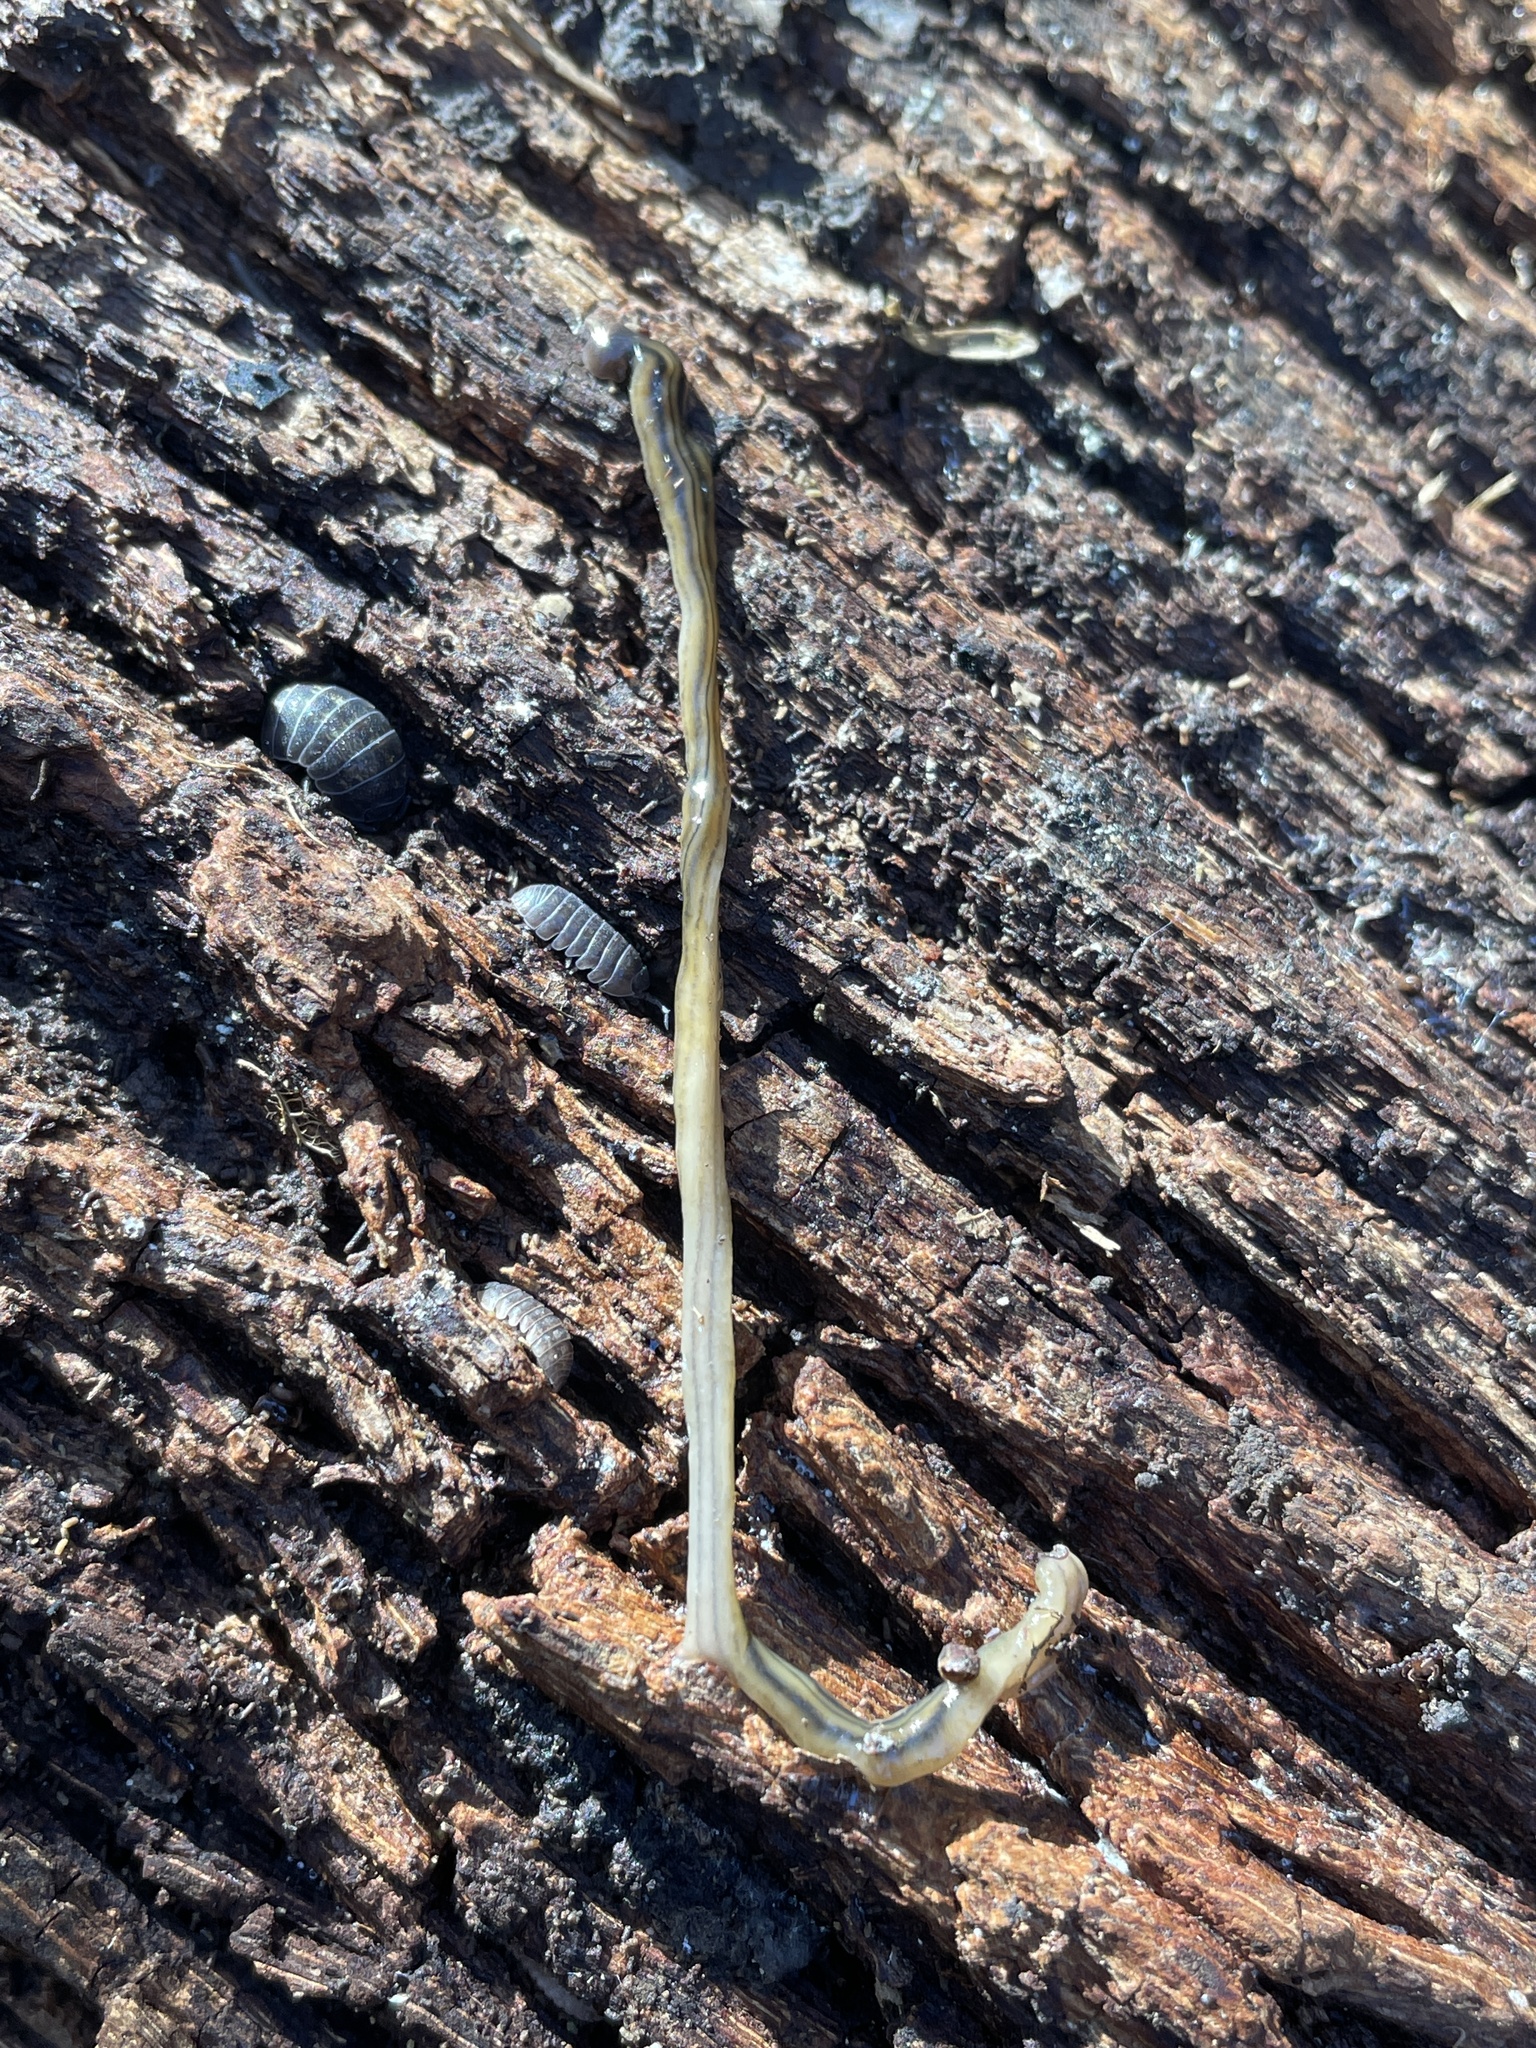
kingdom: Animalia
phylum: Platyhelminthes
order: Tricladida
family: Geoplanidae
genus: Bipalium
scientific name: Bipalium kewense
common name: Hammerhead flatworm
